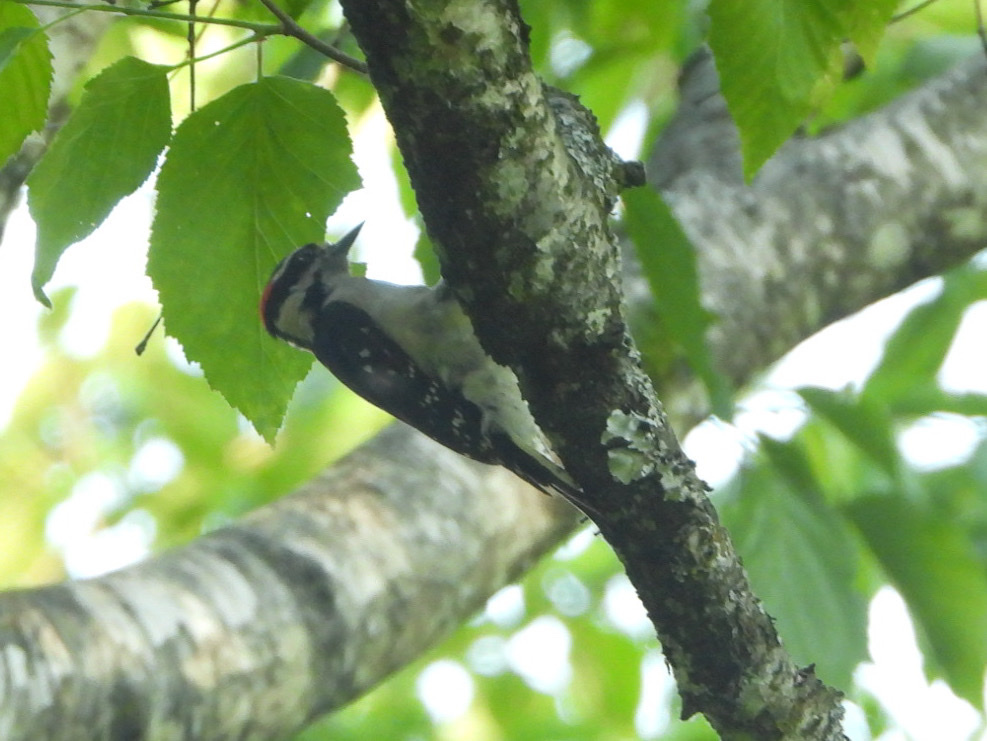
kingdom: Animalia
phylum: Chordata
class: Aves
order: Piciformes
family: Picidae
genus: Dryobates
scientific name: Dryobates pubescens
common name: Downy woodpecker
